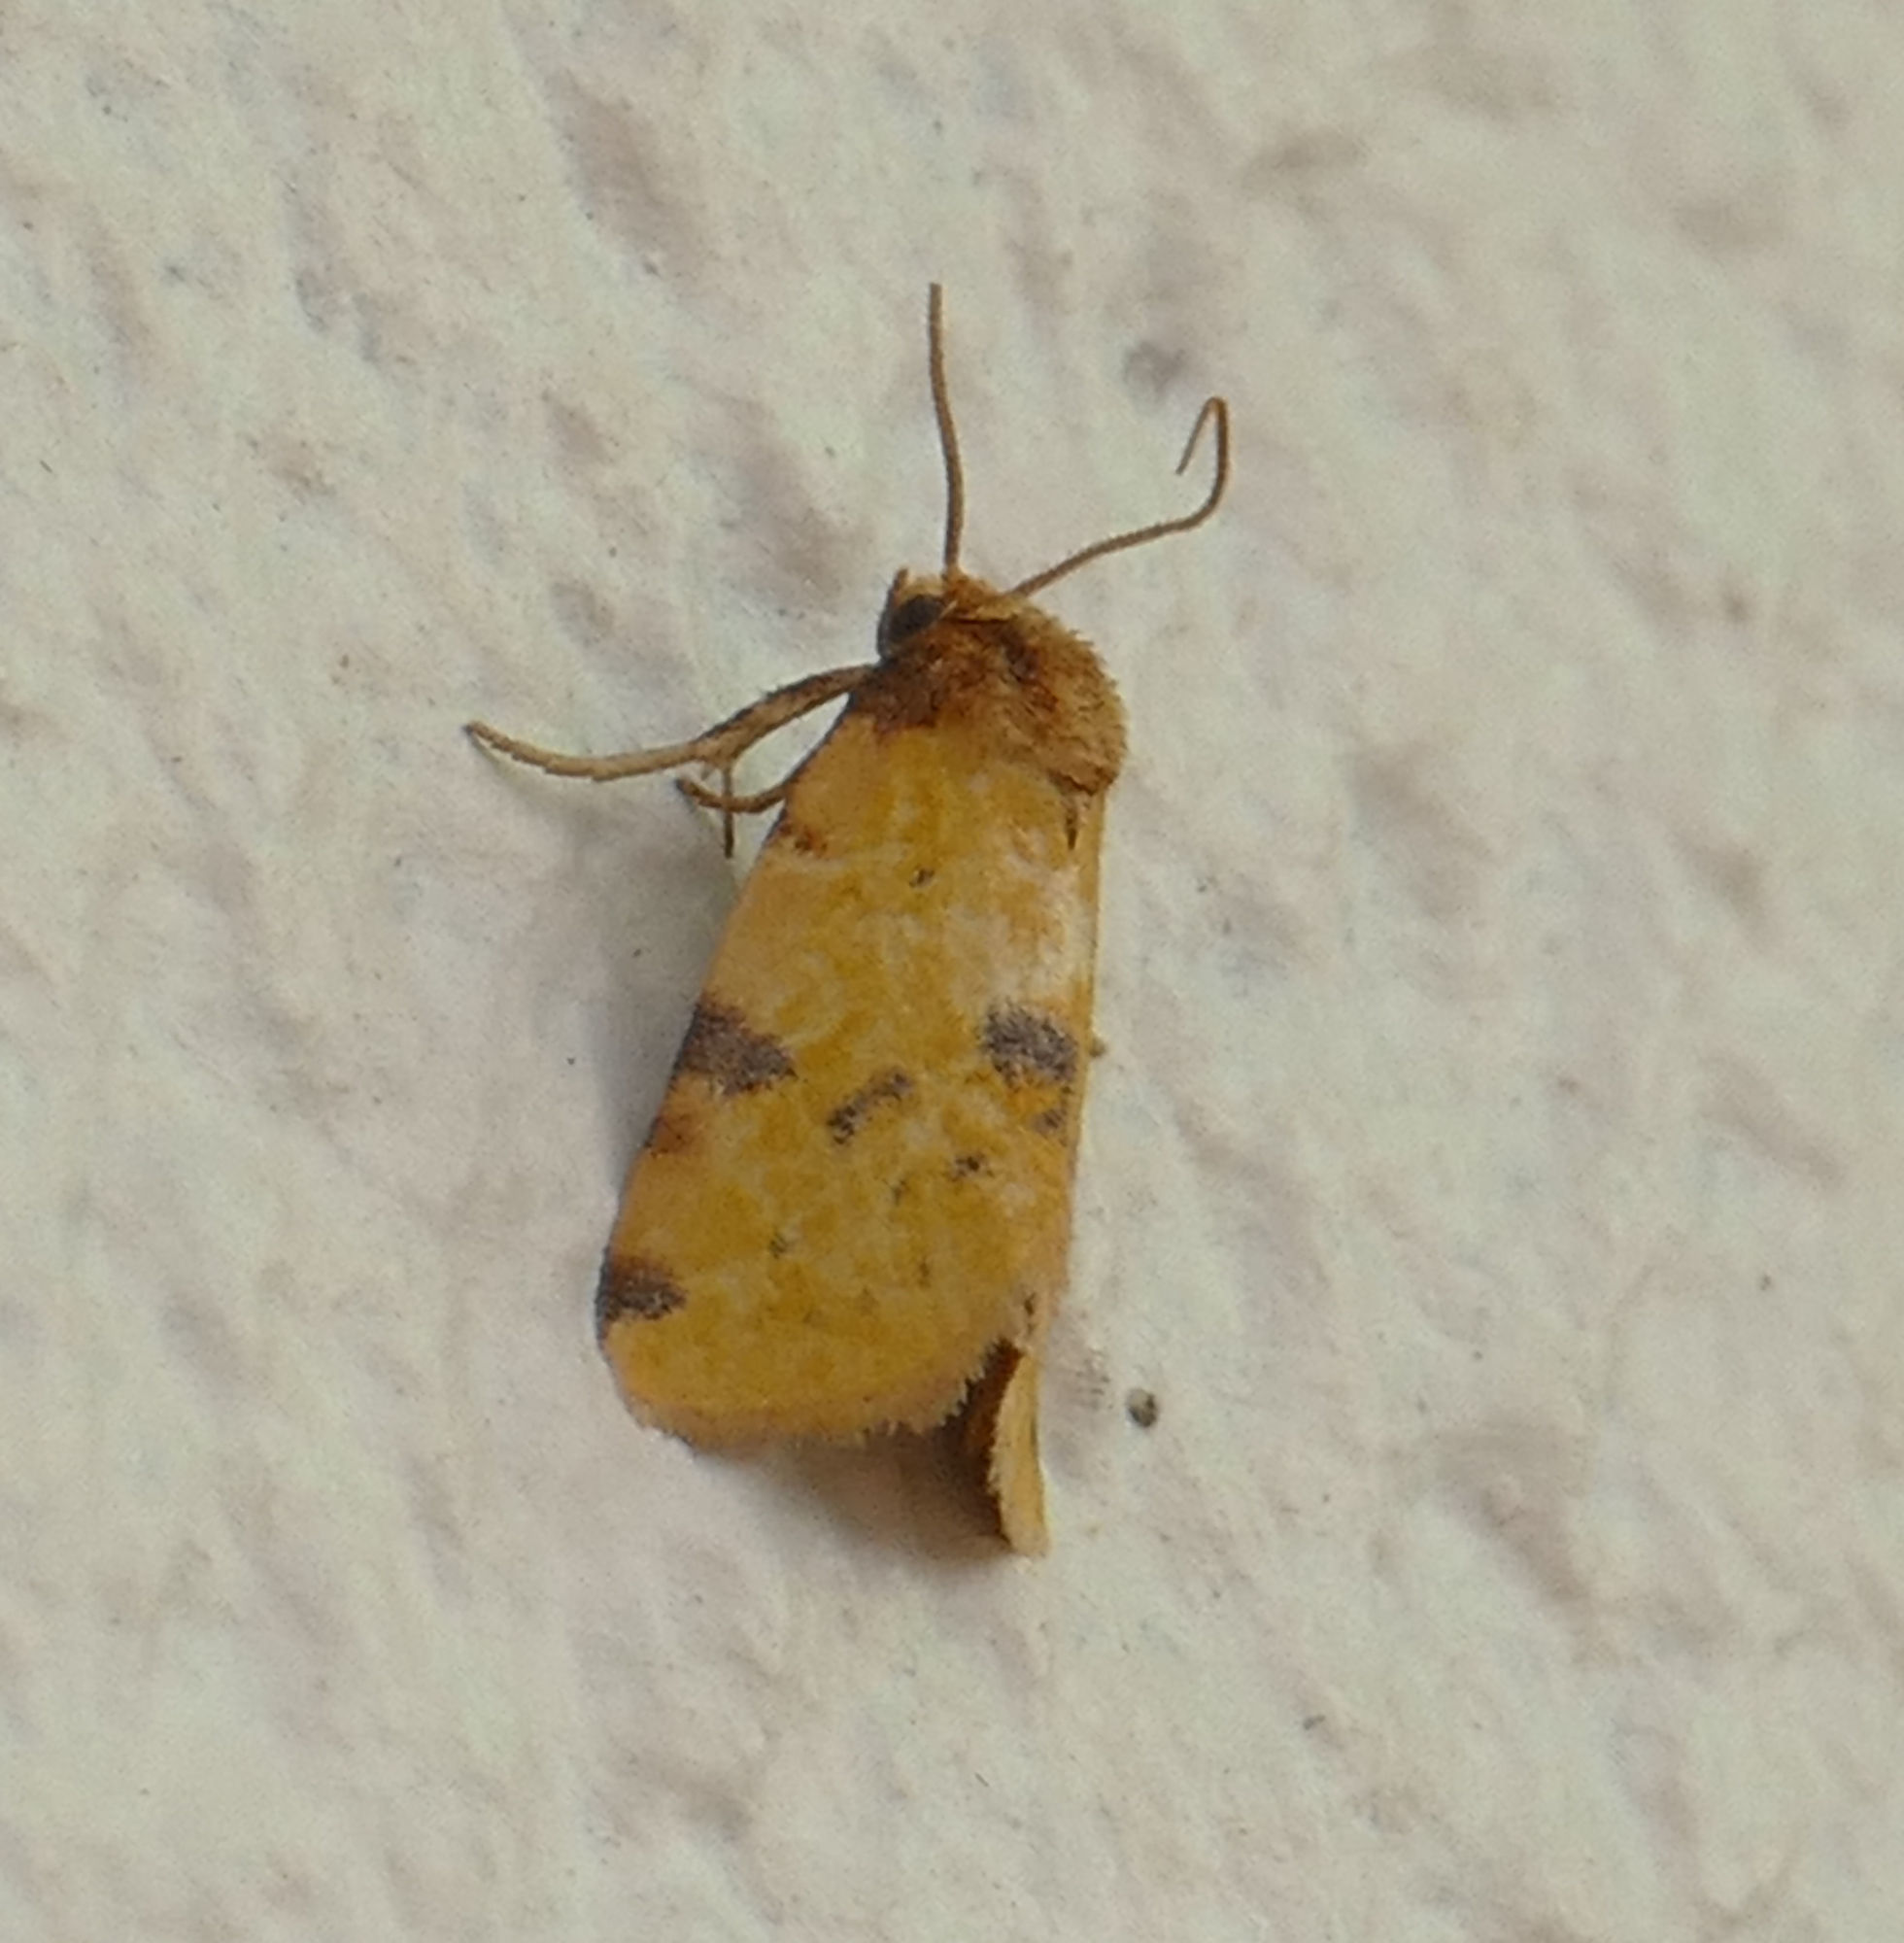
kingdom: Animalia
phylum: Arthropoda
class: Insecta
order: Lepidoptera
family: Noctuidae
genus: Azenia
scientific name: Azenia obtusa
